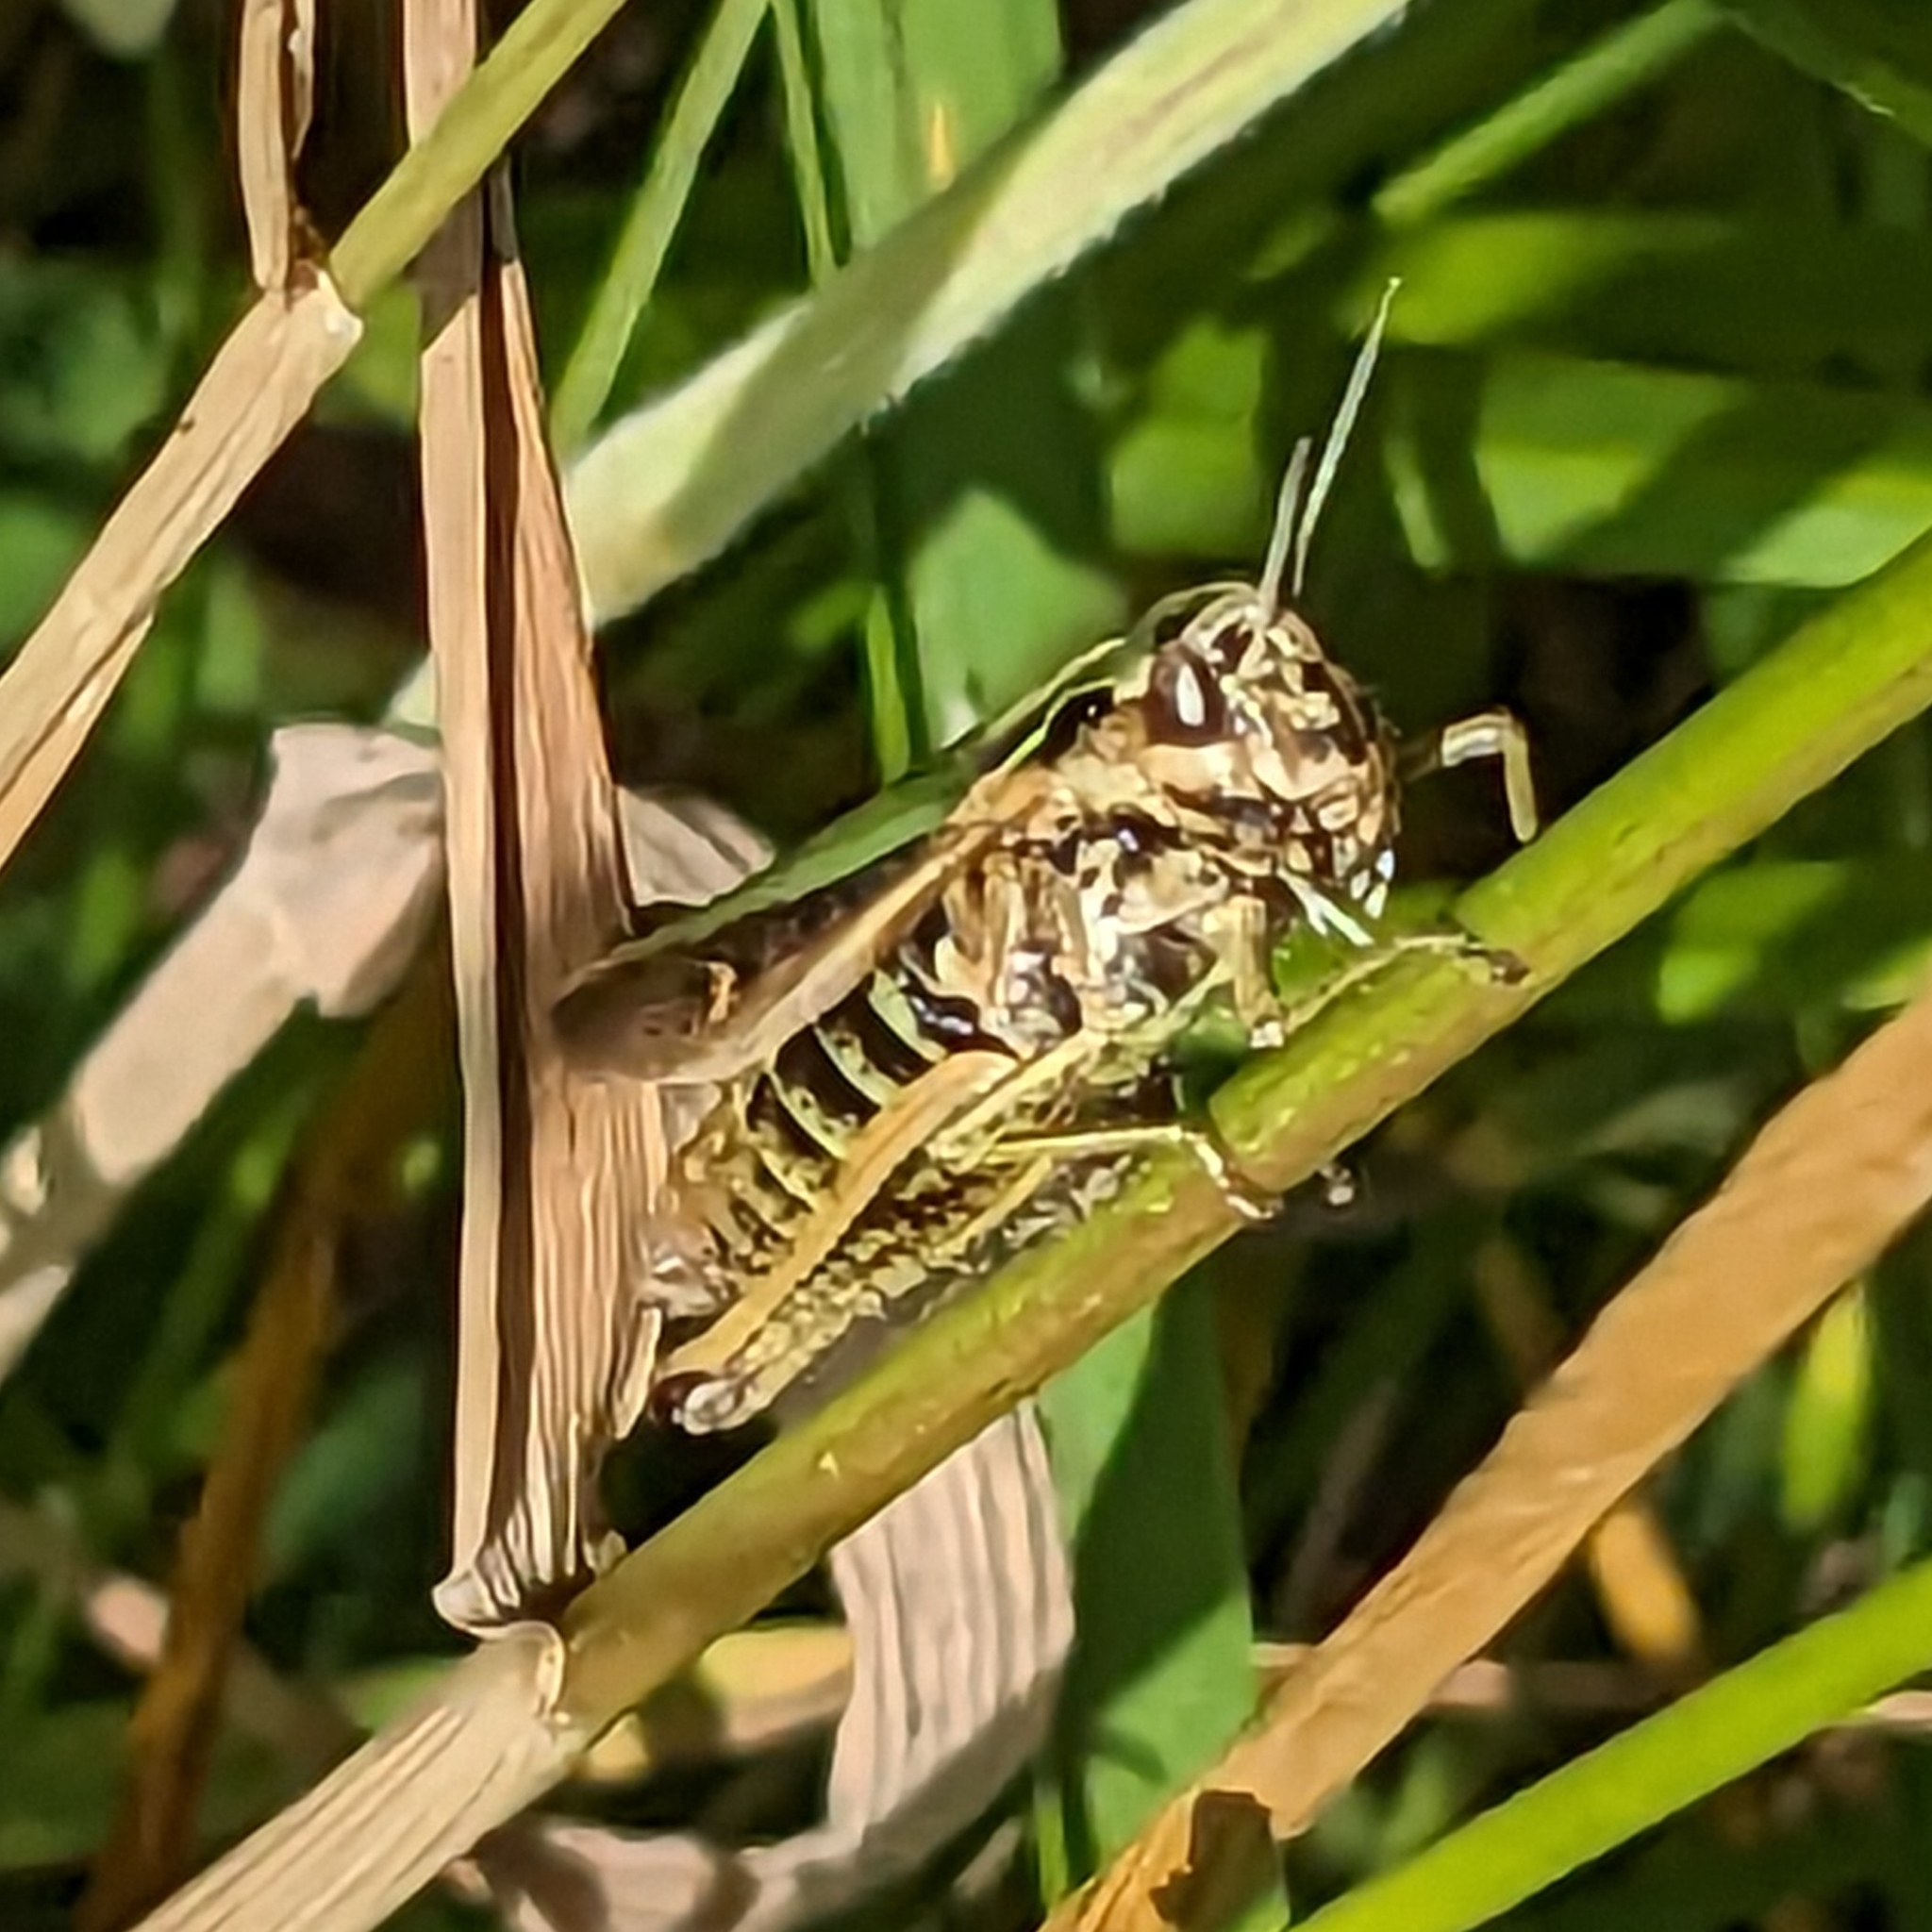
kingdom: Animalia
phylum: Arthropoda
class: Insecta
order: Orthoptera
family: Acrididae
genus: Omocestus
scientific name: Omocestus viridulus
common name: Common green grasshopper
